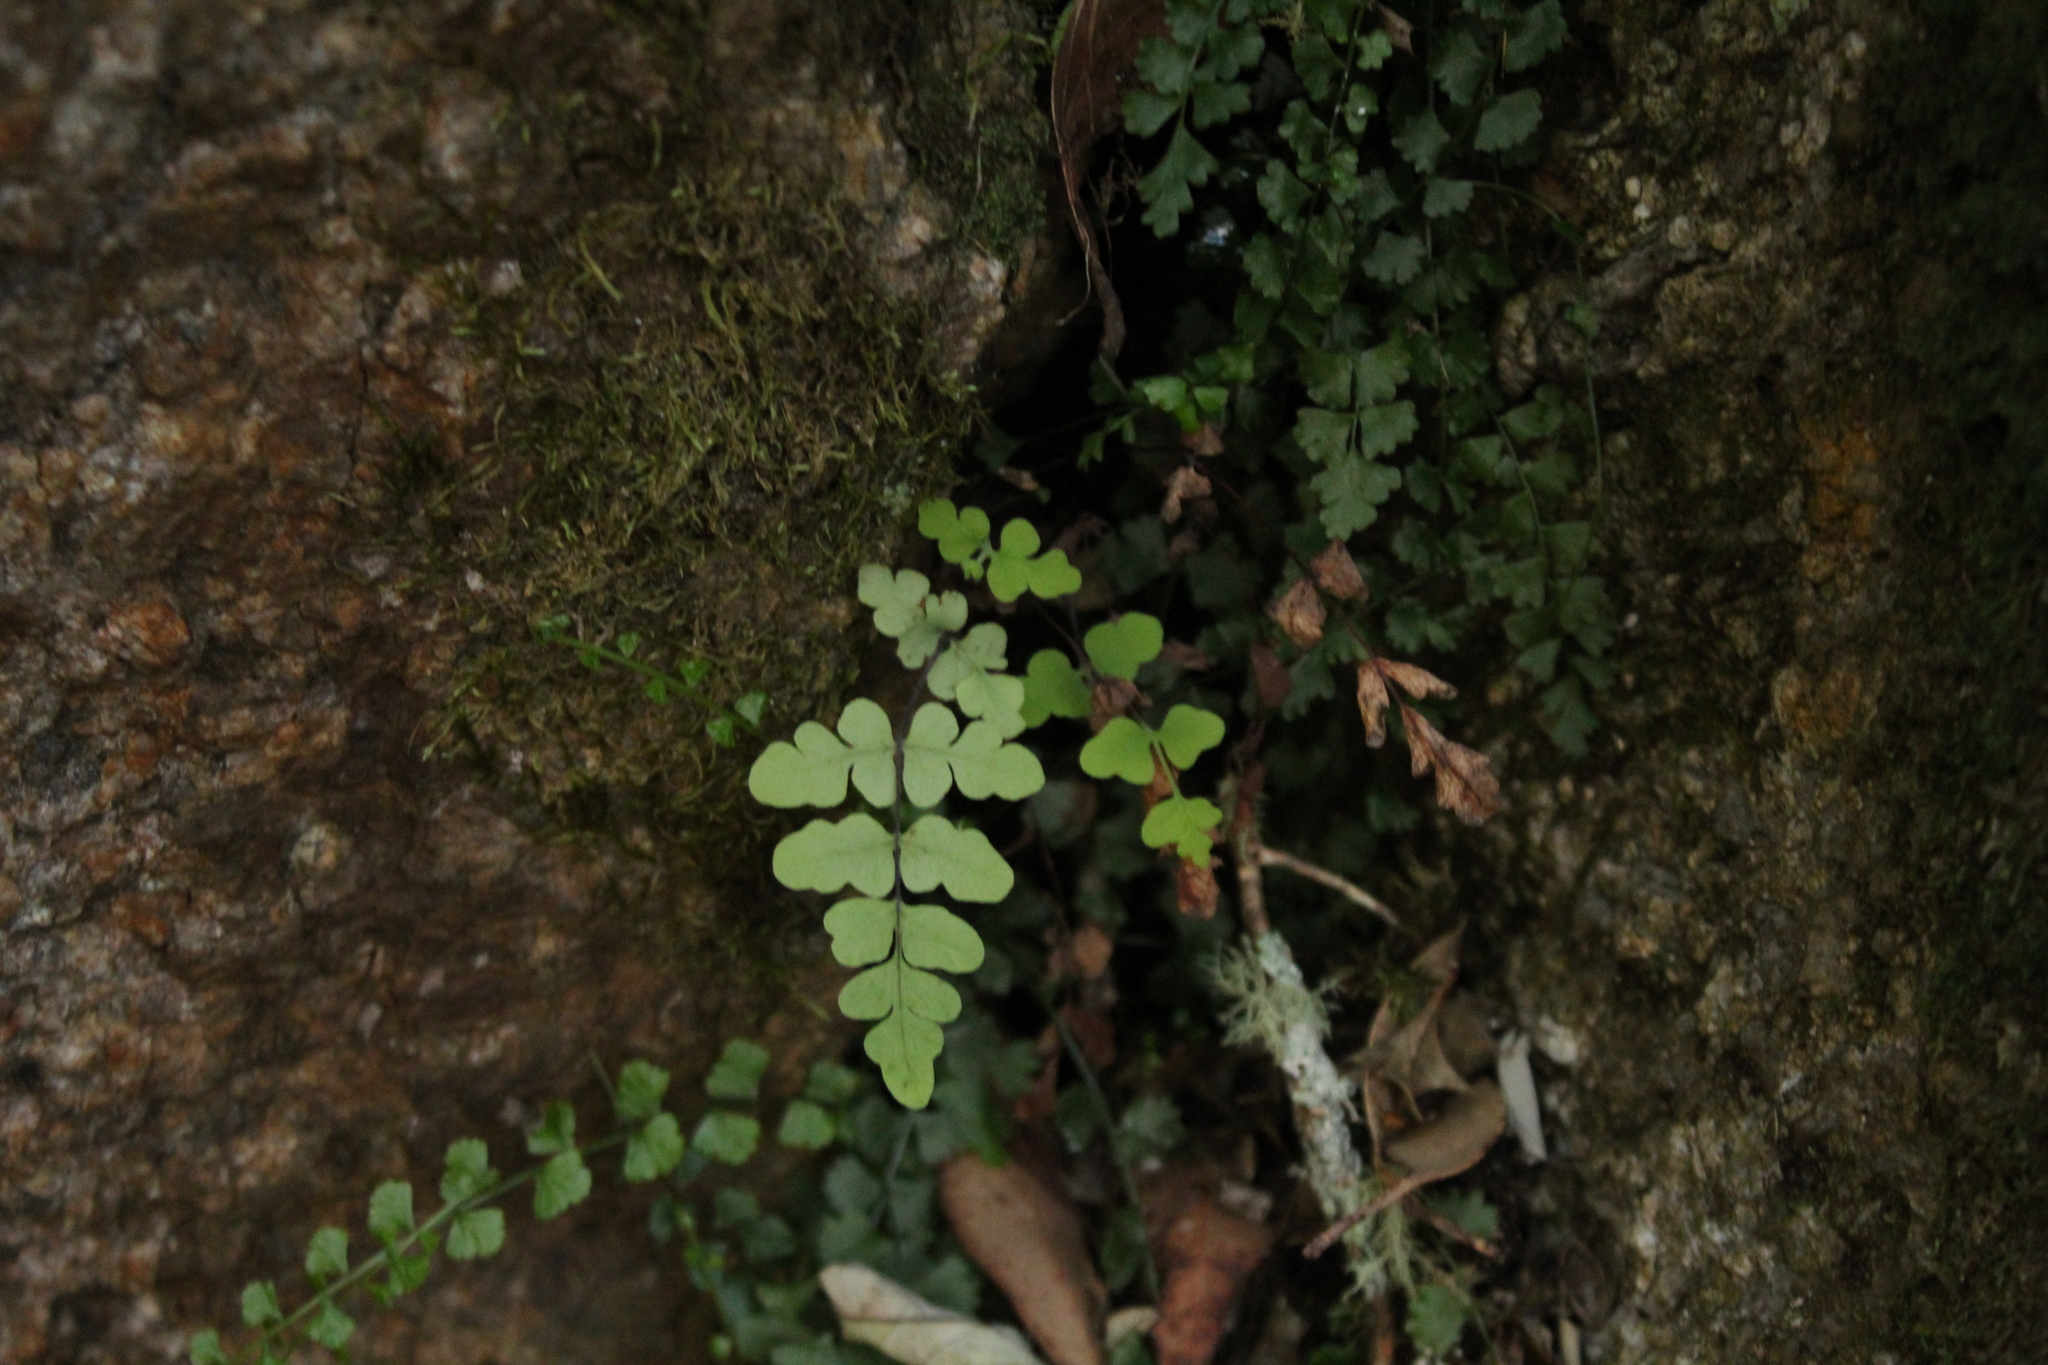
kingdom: Plantae
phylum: Tracheophyta
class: Polypodiopsida
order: Polypodiales
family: Aspleniaceae
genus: Asplenium
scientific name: Asplenium flabellifolium
